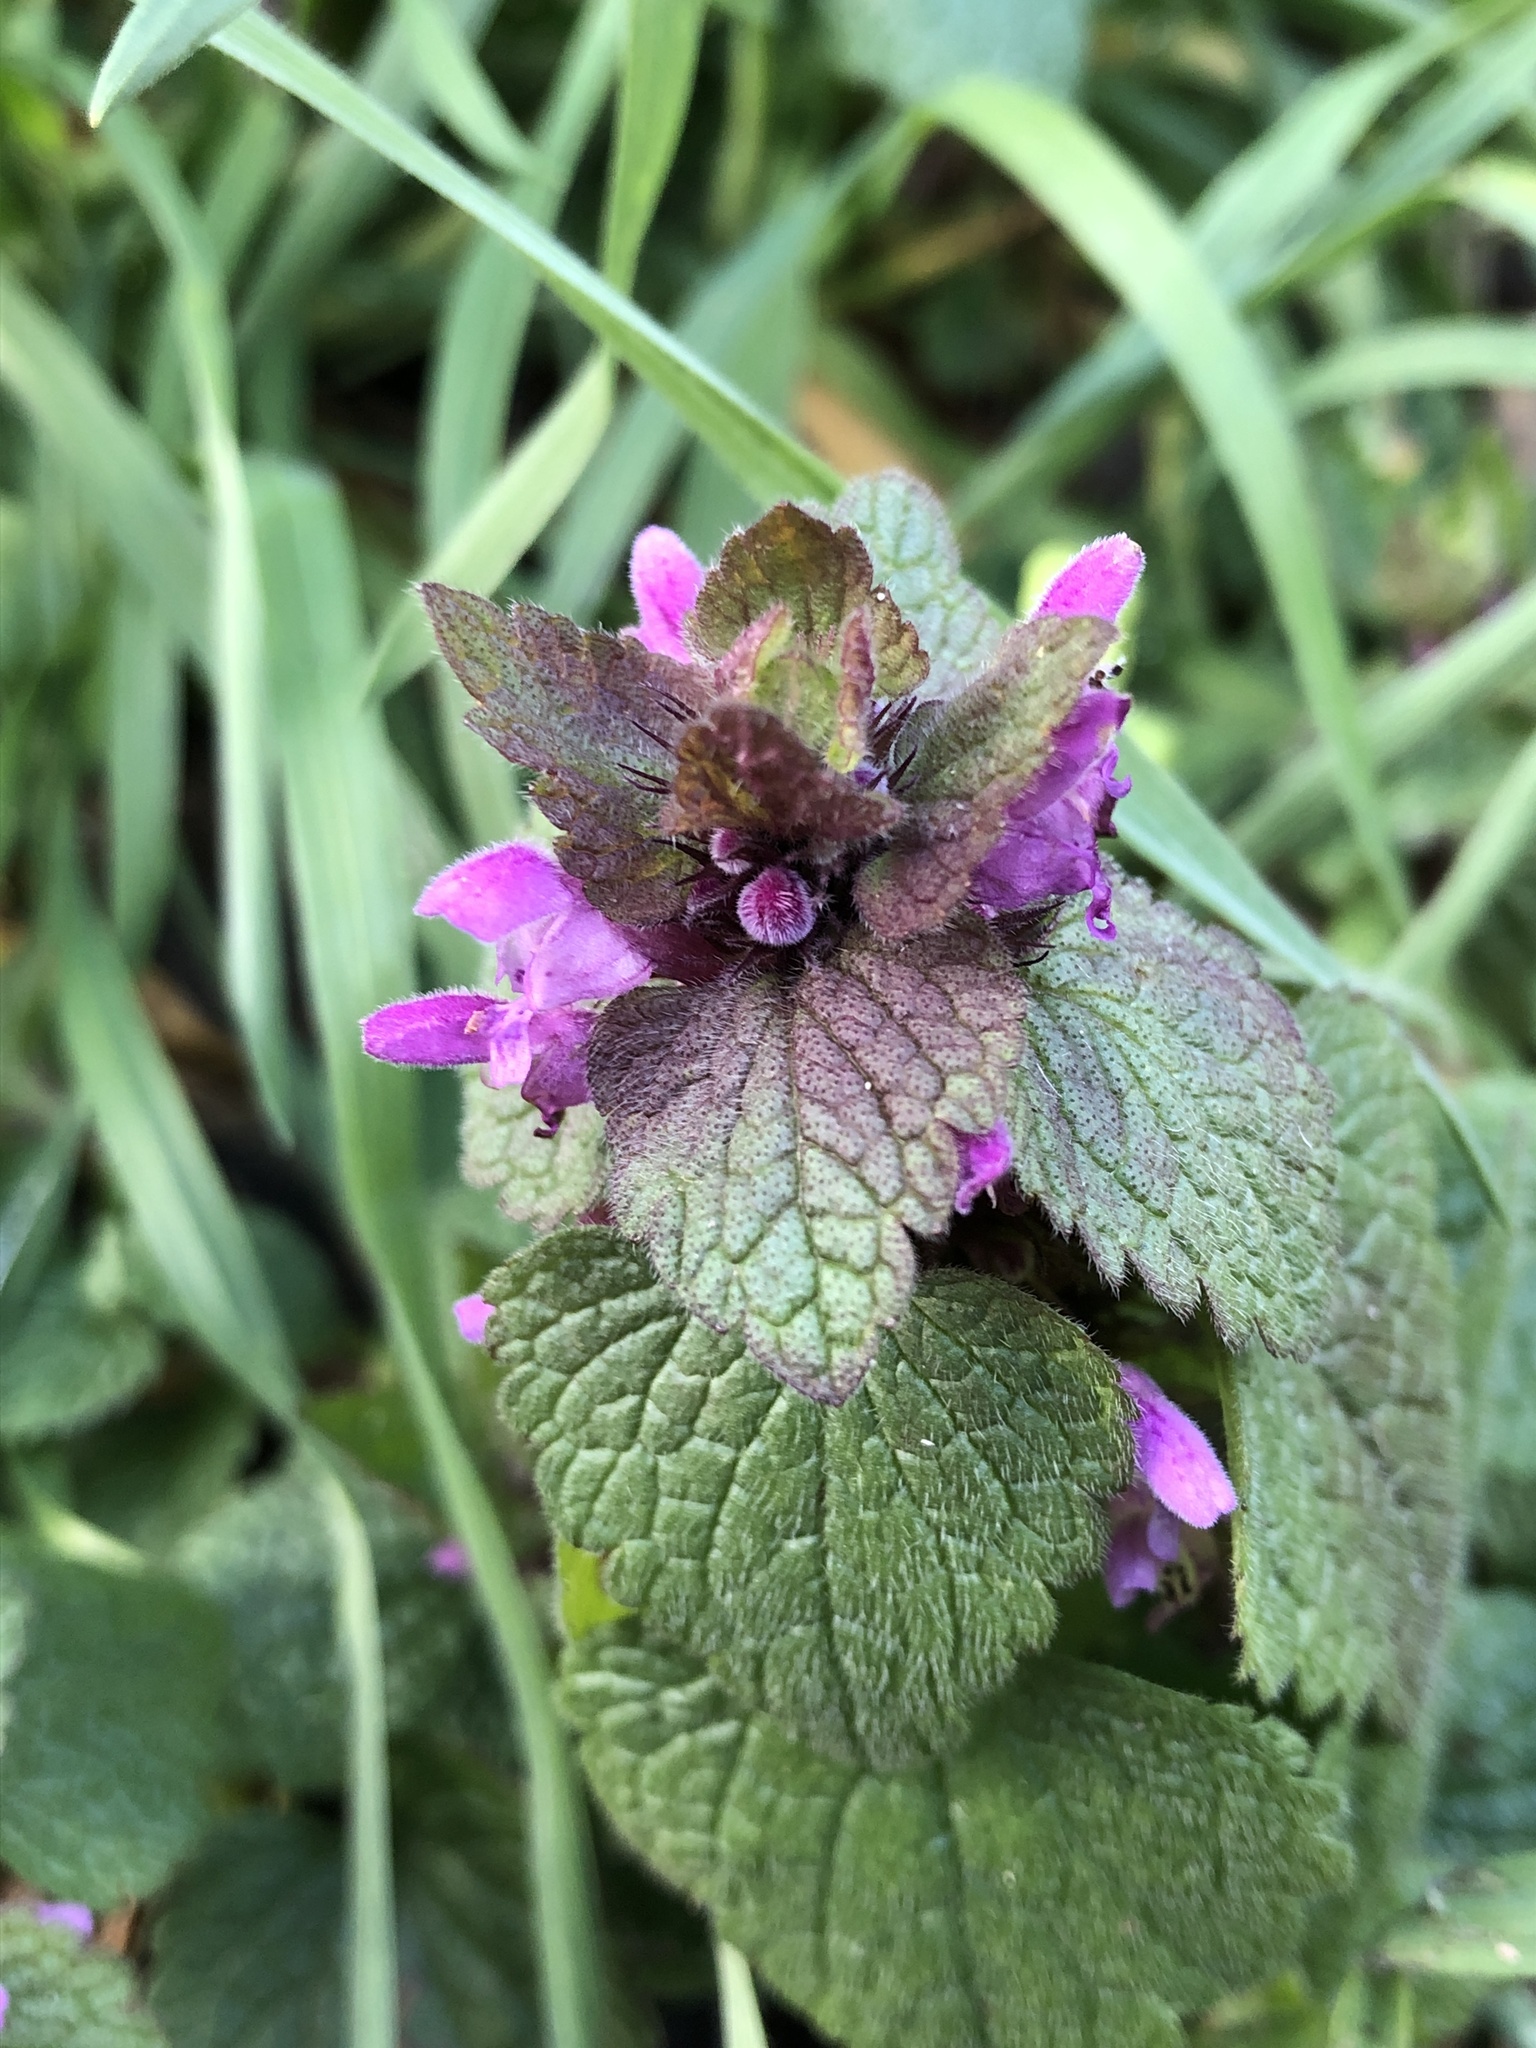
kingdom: Plantae
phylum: Tracheophyta
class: Magnoliopsida
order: Lamiales
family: Lamiaceae
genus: Lamium
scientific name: Lamium purpureum
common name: Red dead-nettle
